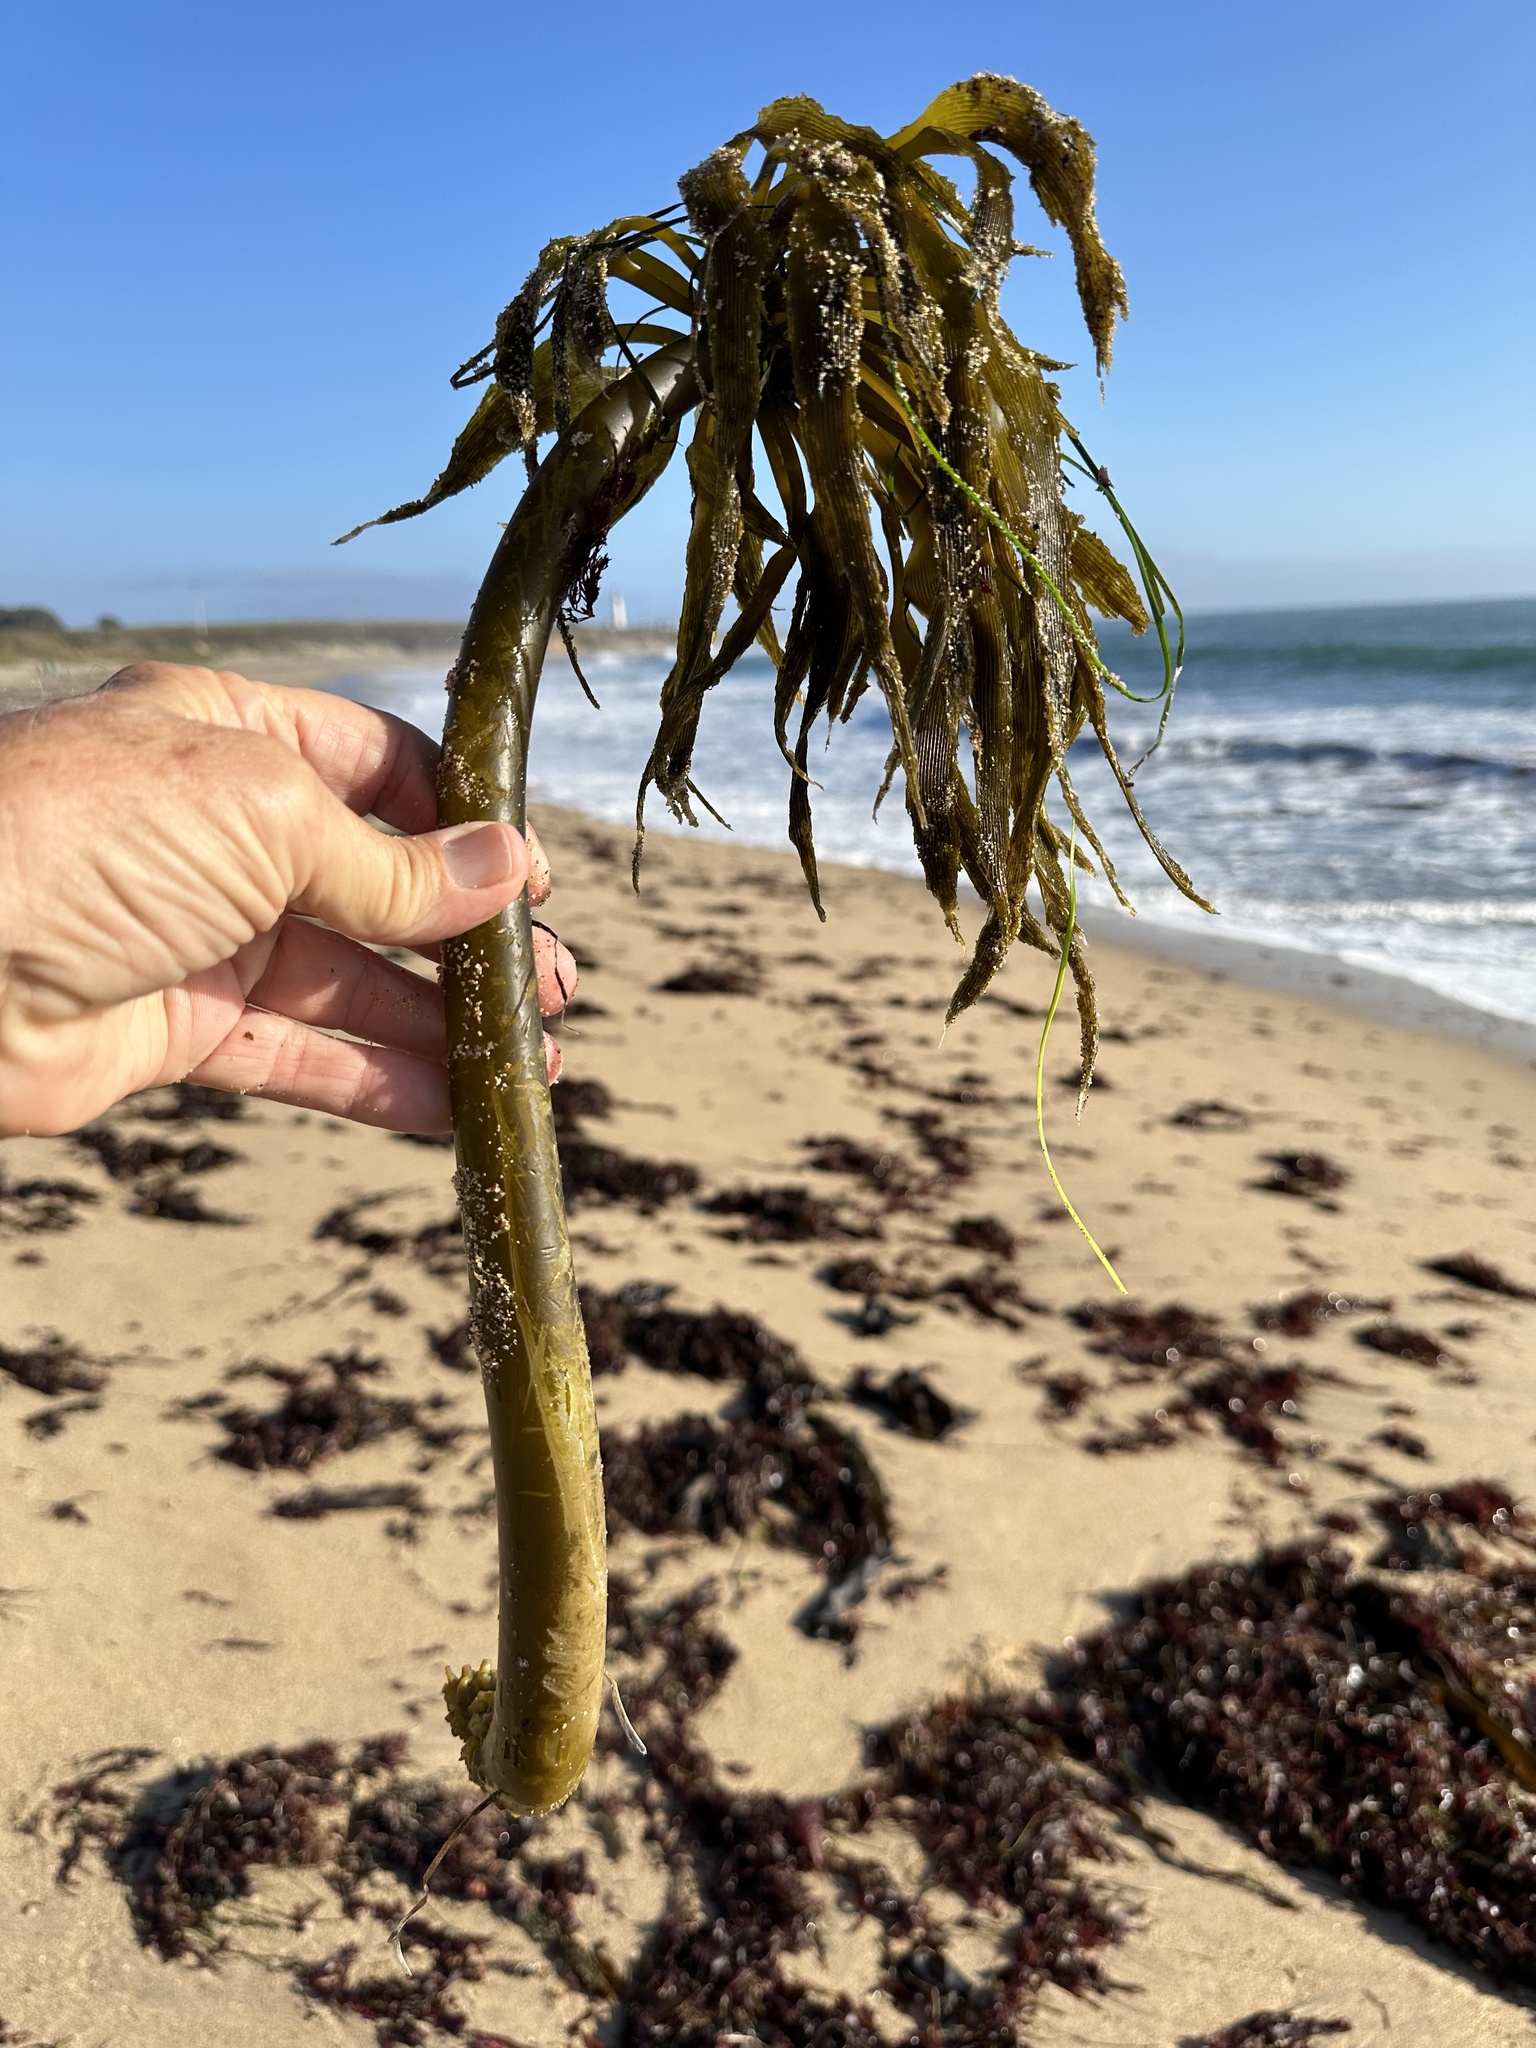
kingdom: Chromista
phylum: Ochrophyta
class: Phaeophyceae
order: Laminariales
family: Laminariaceae
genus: Postelsia
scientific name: Postelsia palmiformis
